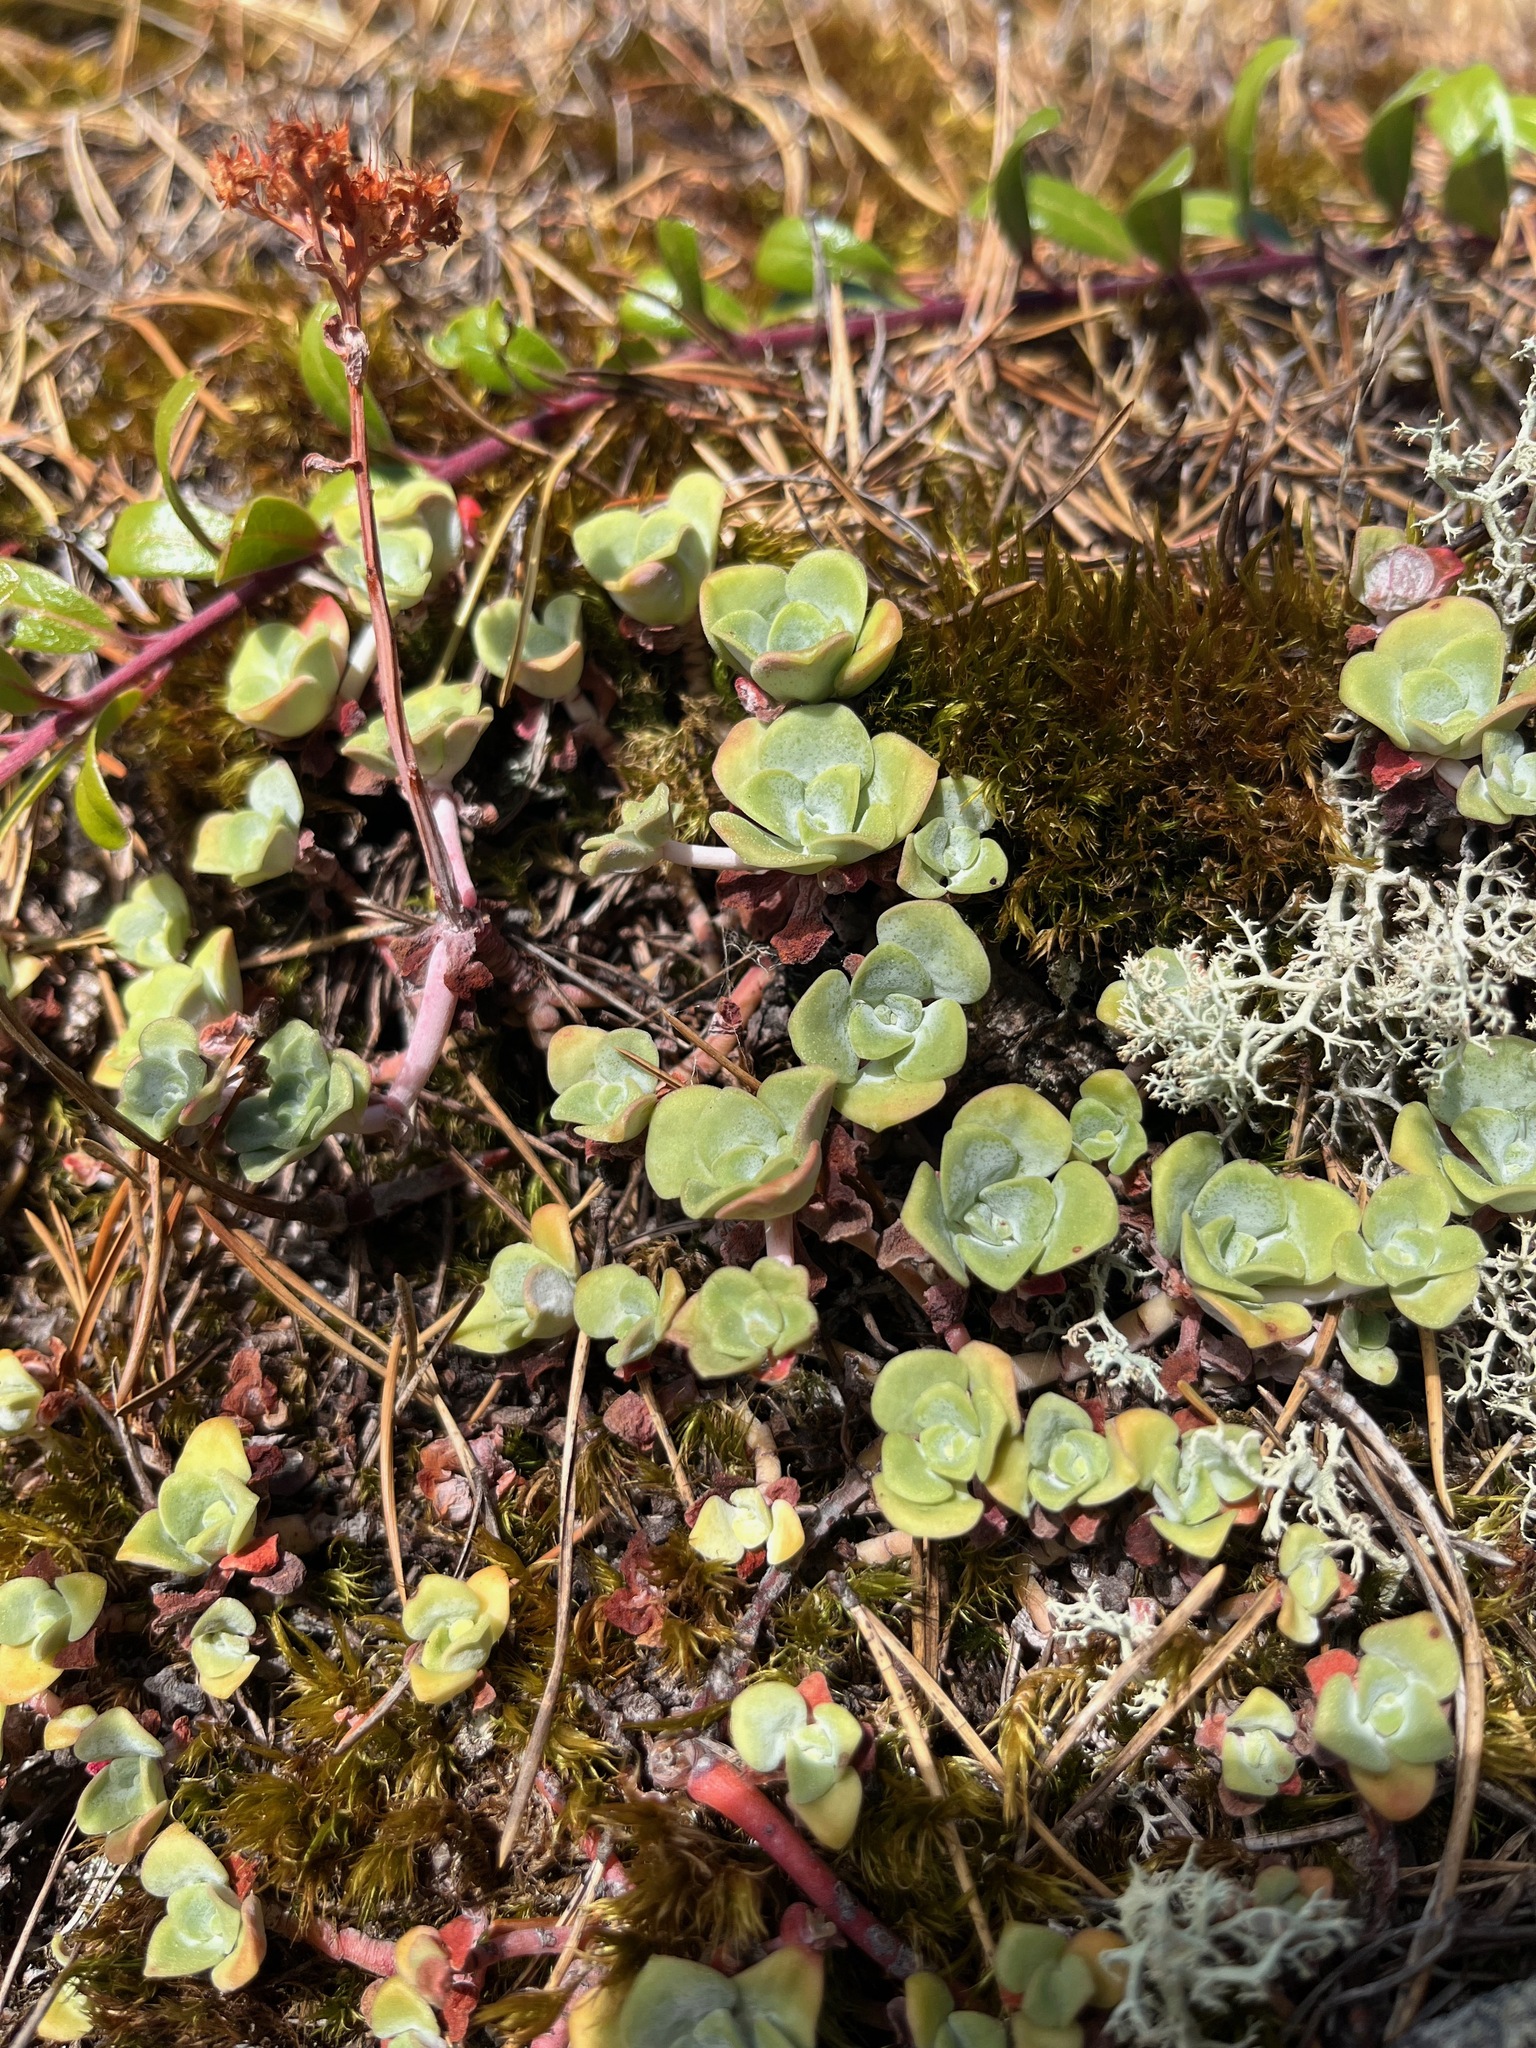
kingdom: Plantae
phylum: Tracheophyta
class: Magnoliopsida
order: Saxifragales
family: Crassulaceae
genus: Sedum
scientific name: Sedum spathulifolium
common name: Colorado stonecrop
